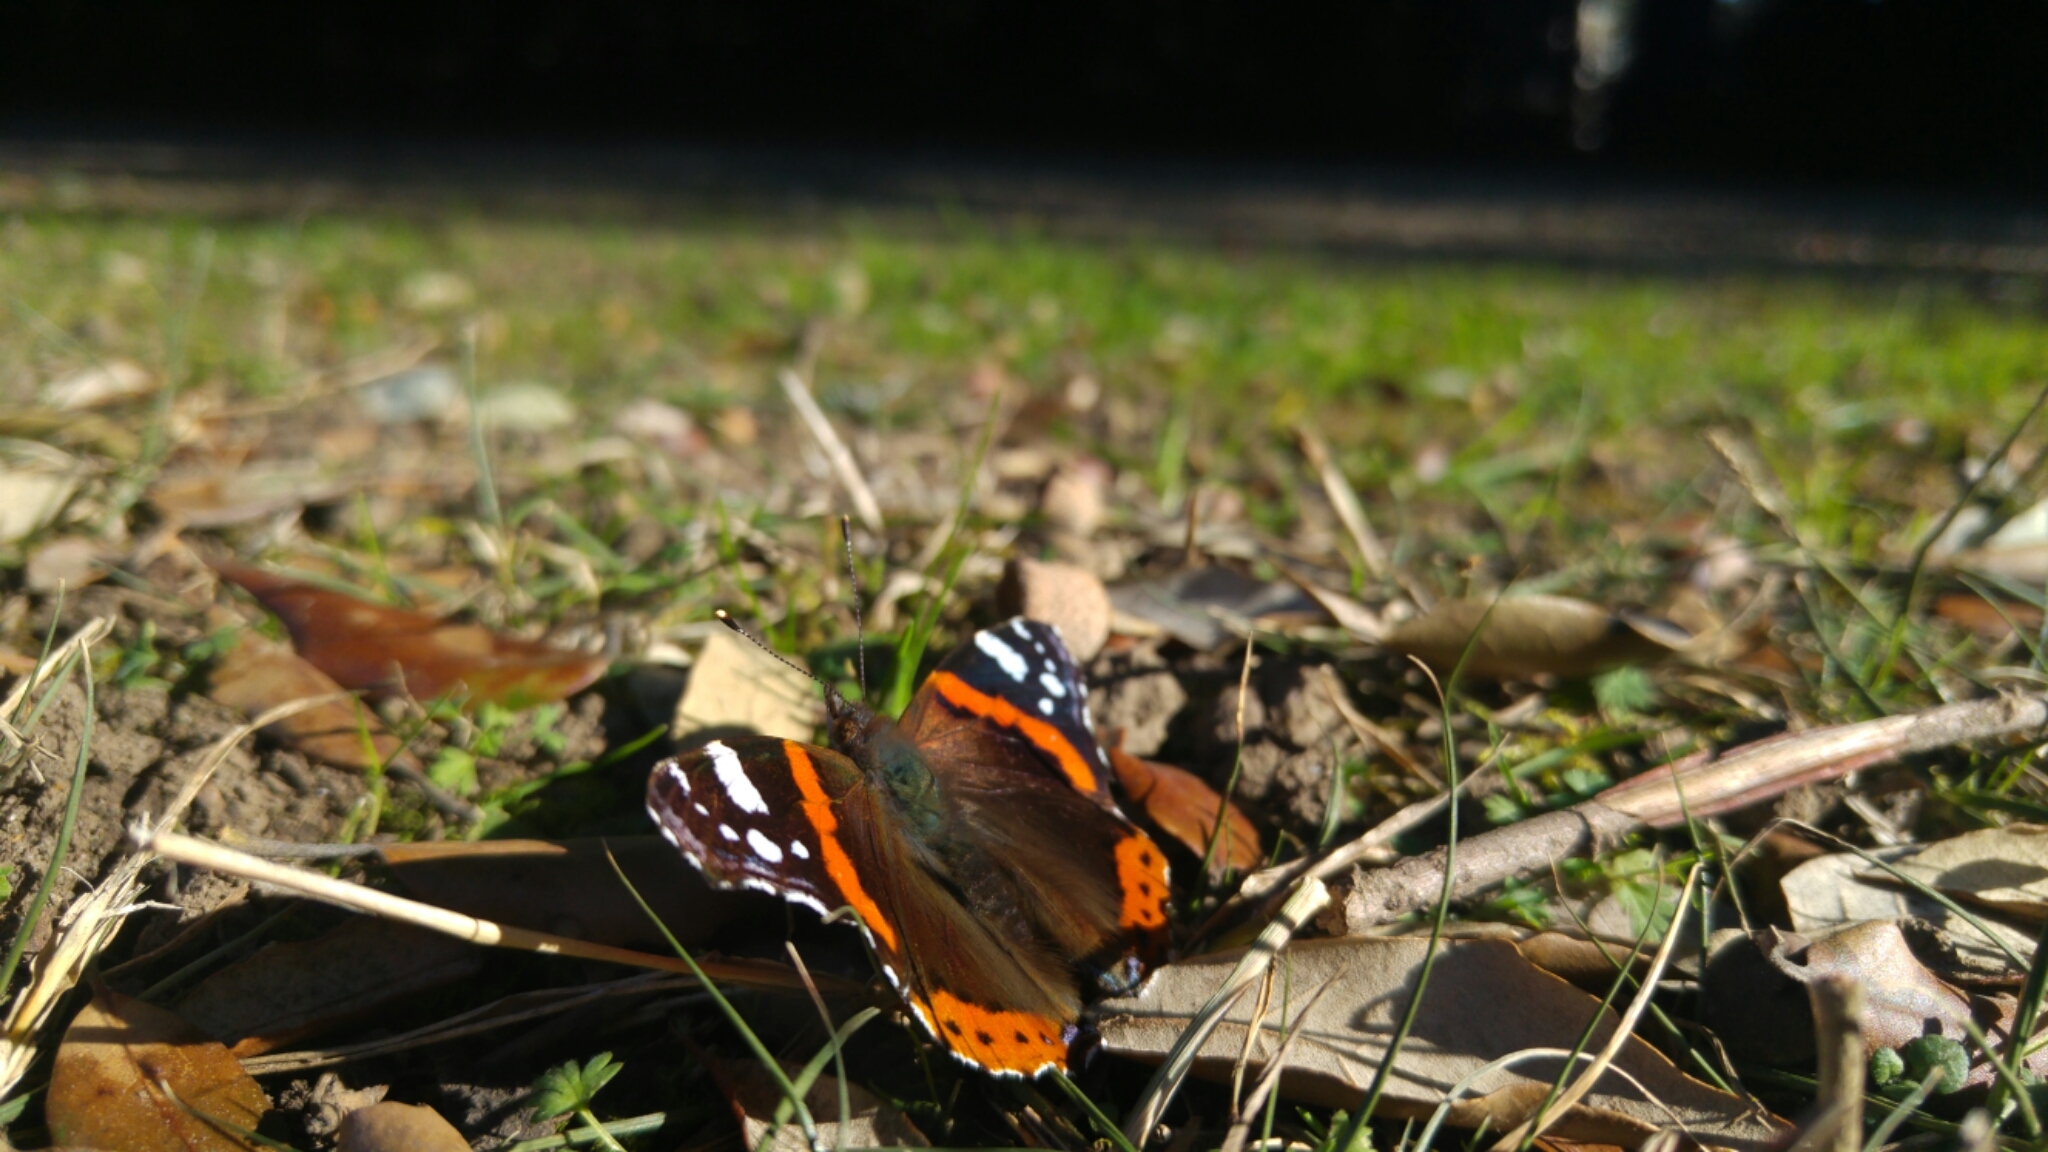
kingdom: Animalia
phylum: Arthropoda
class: Insecta
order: Lepidoptera
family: Nymphalidae
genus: Vanessa
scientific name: Vanessa atalanta
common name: Red admiral
